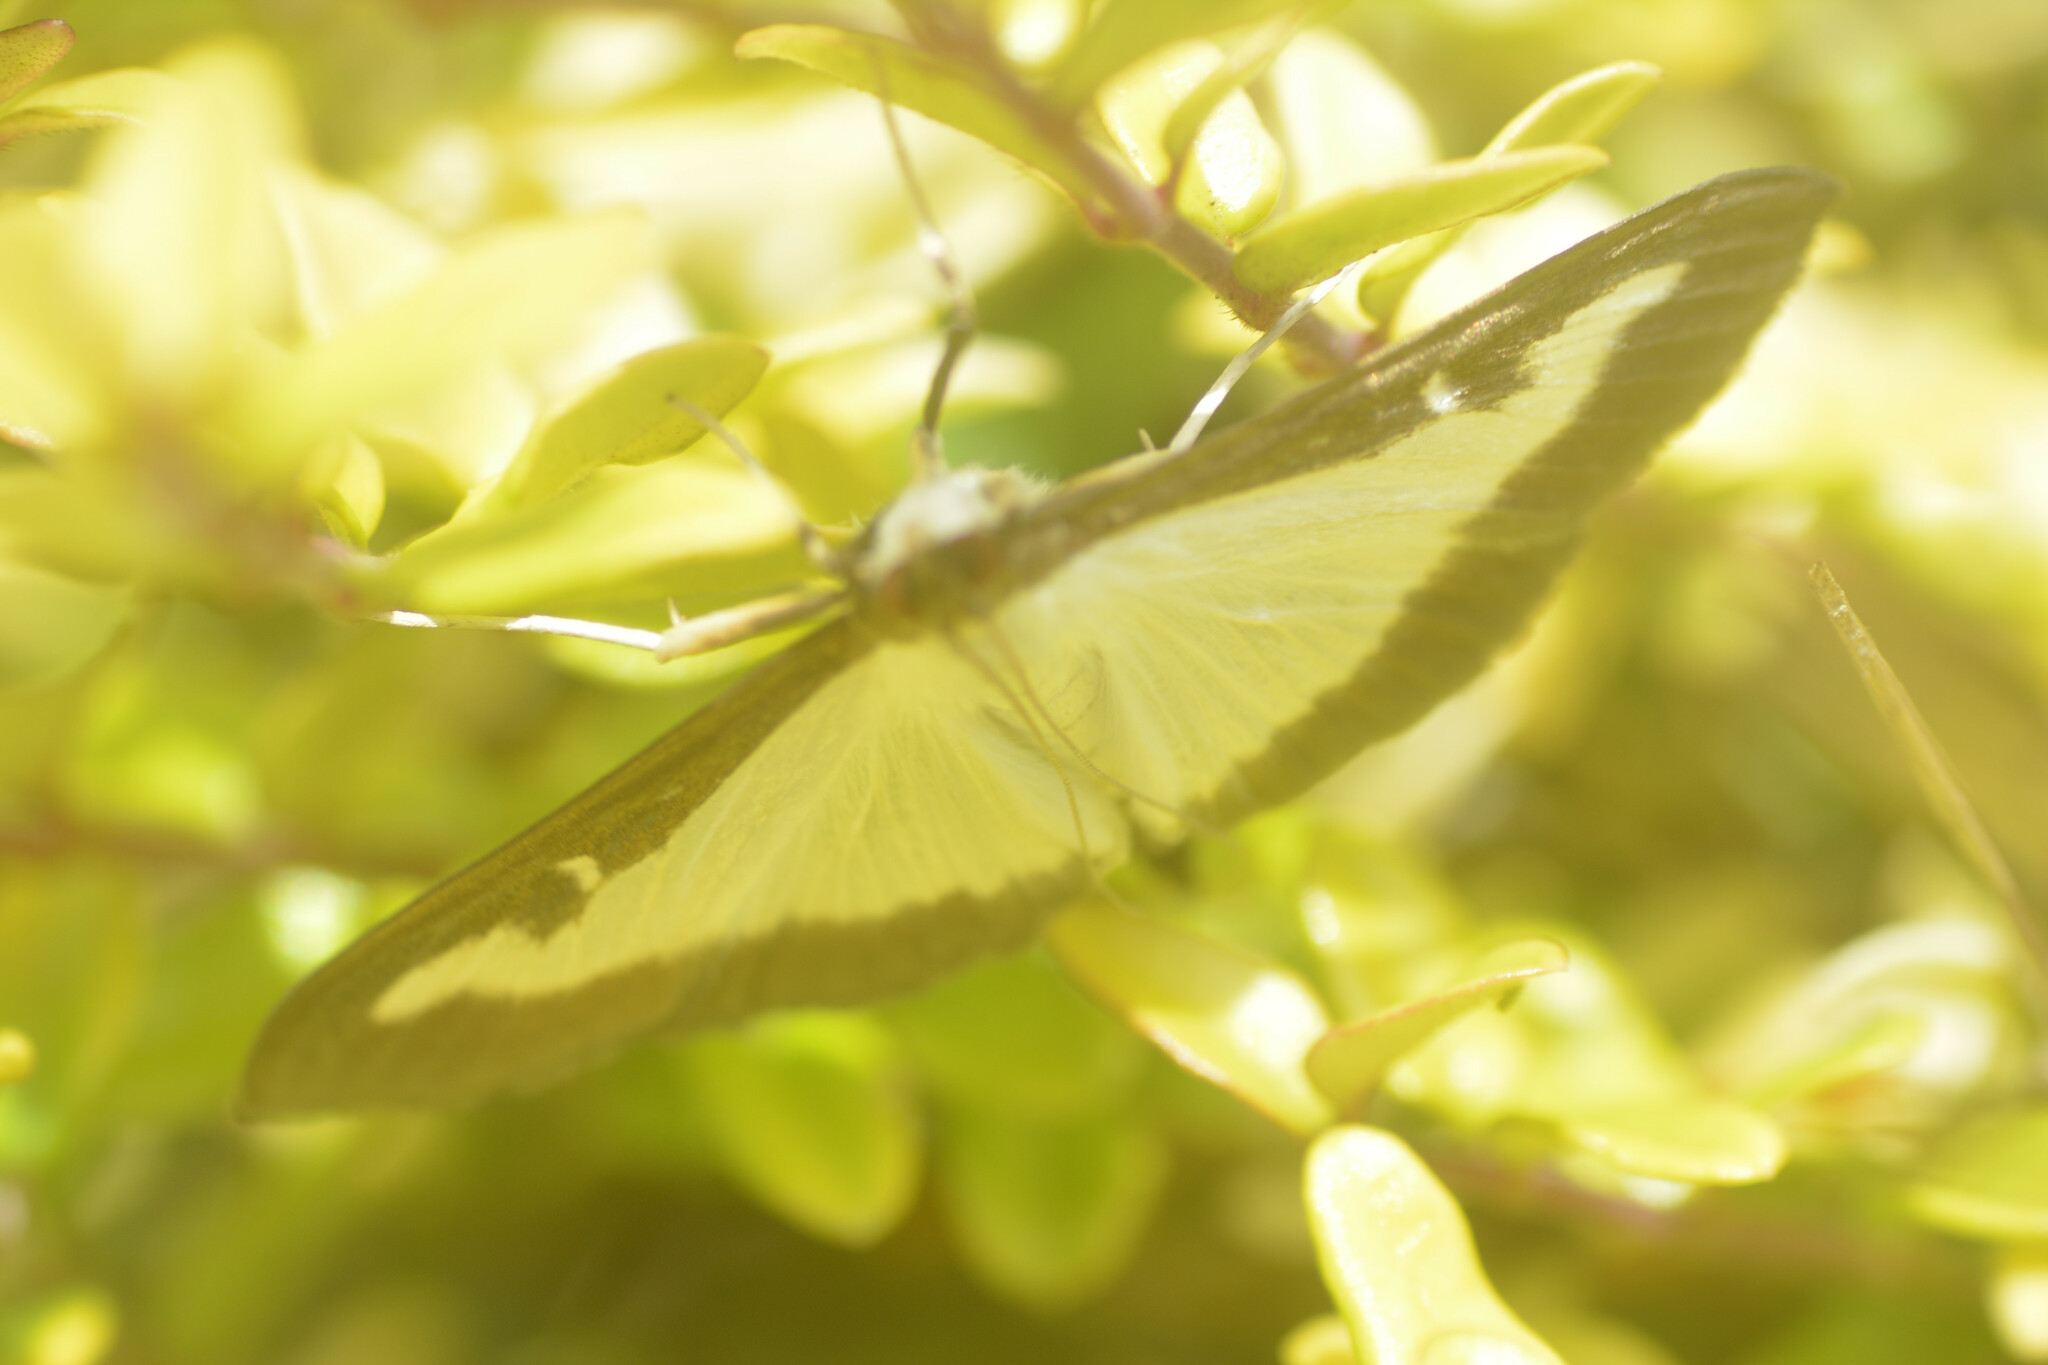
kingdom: Animalia
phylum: Arthropoda
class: Insecta
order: Lepidoptera
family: Crambidae
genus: Cydalima
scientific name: Cydalima perspectalis
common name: Box tree moth
